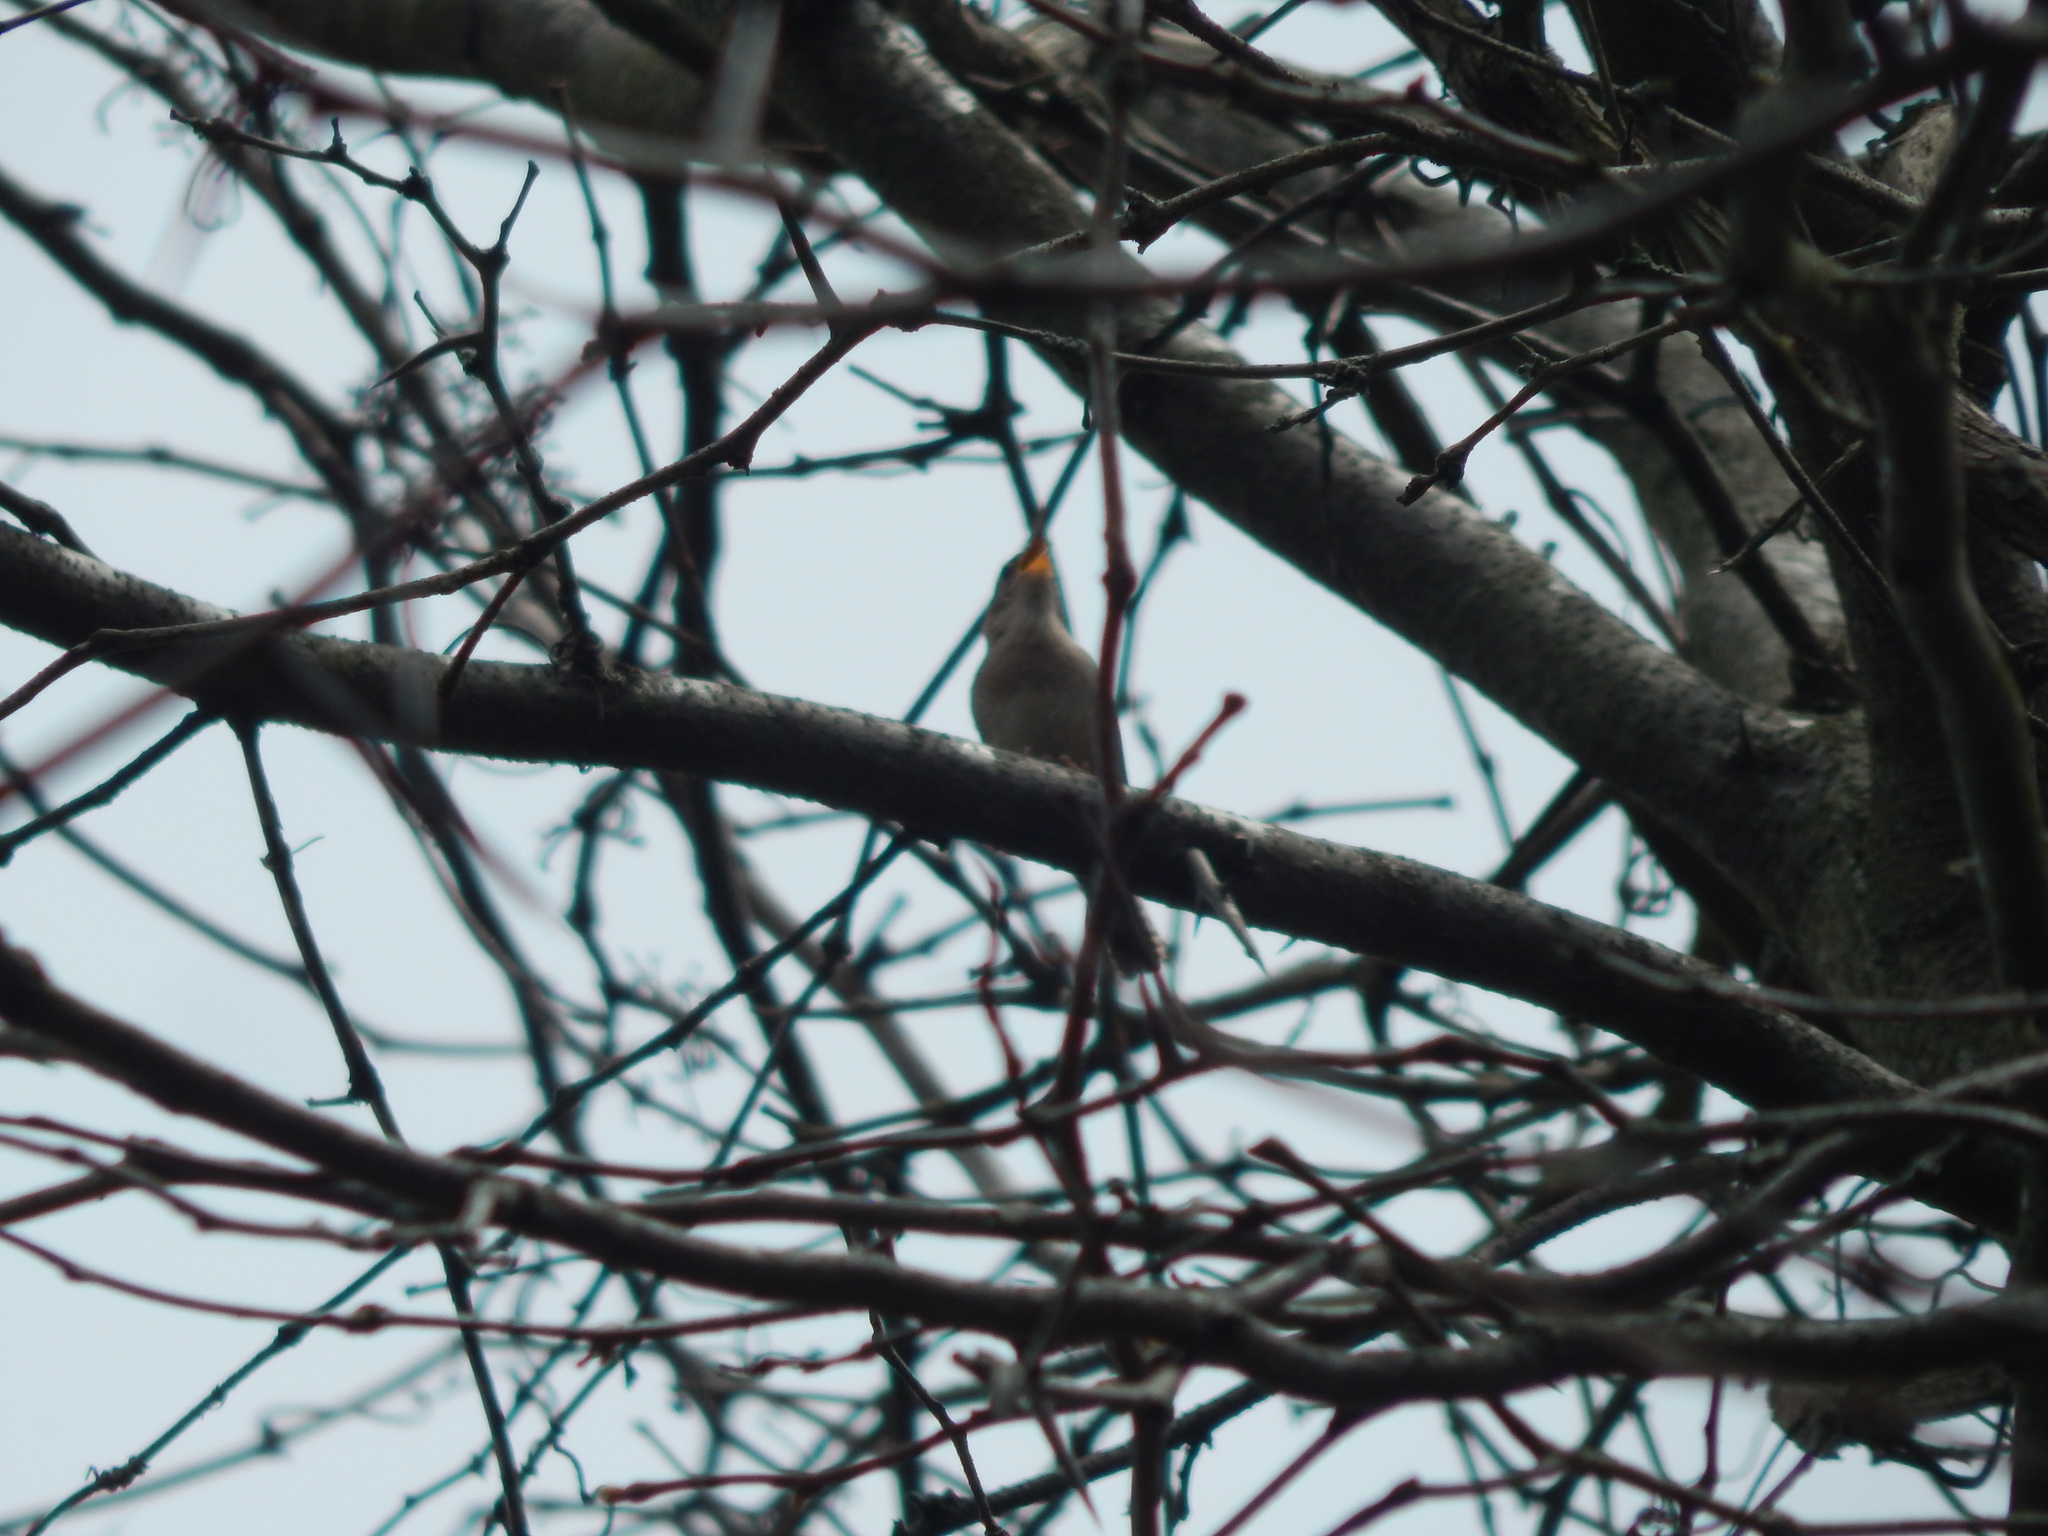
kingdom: Animalia
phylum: Chordata
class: Aves
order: Passeriformes
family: Troglodytidae
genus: Troglodytes
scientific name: Troglodytes aedon
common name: House wren
